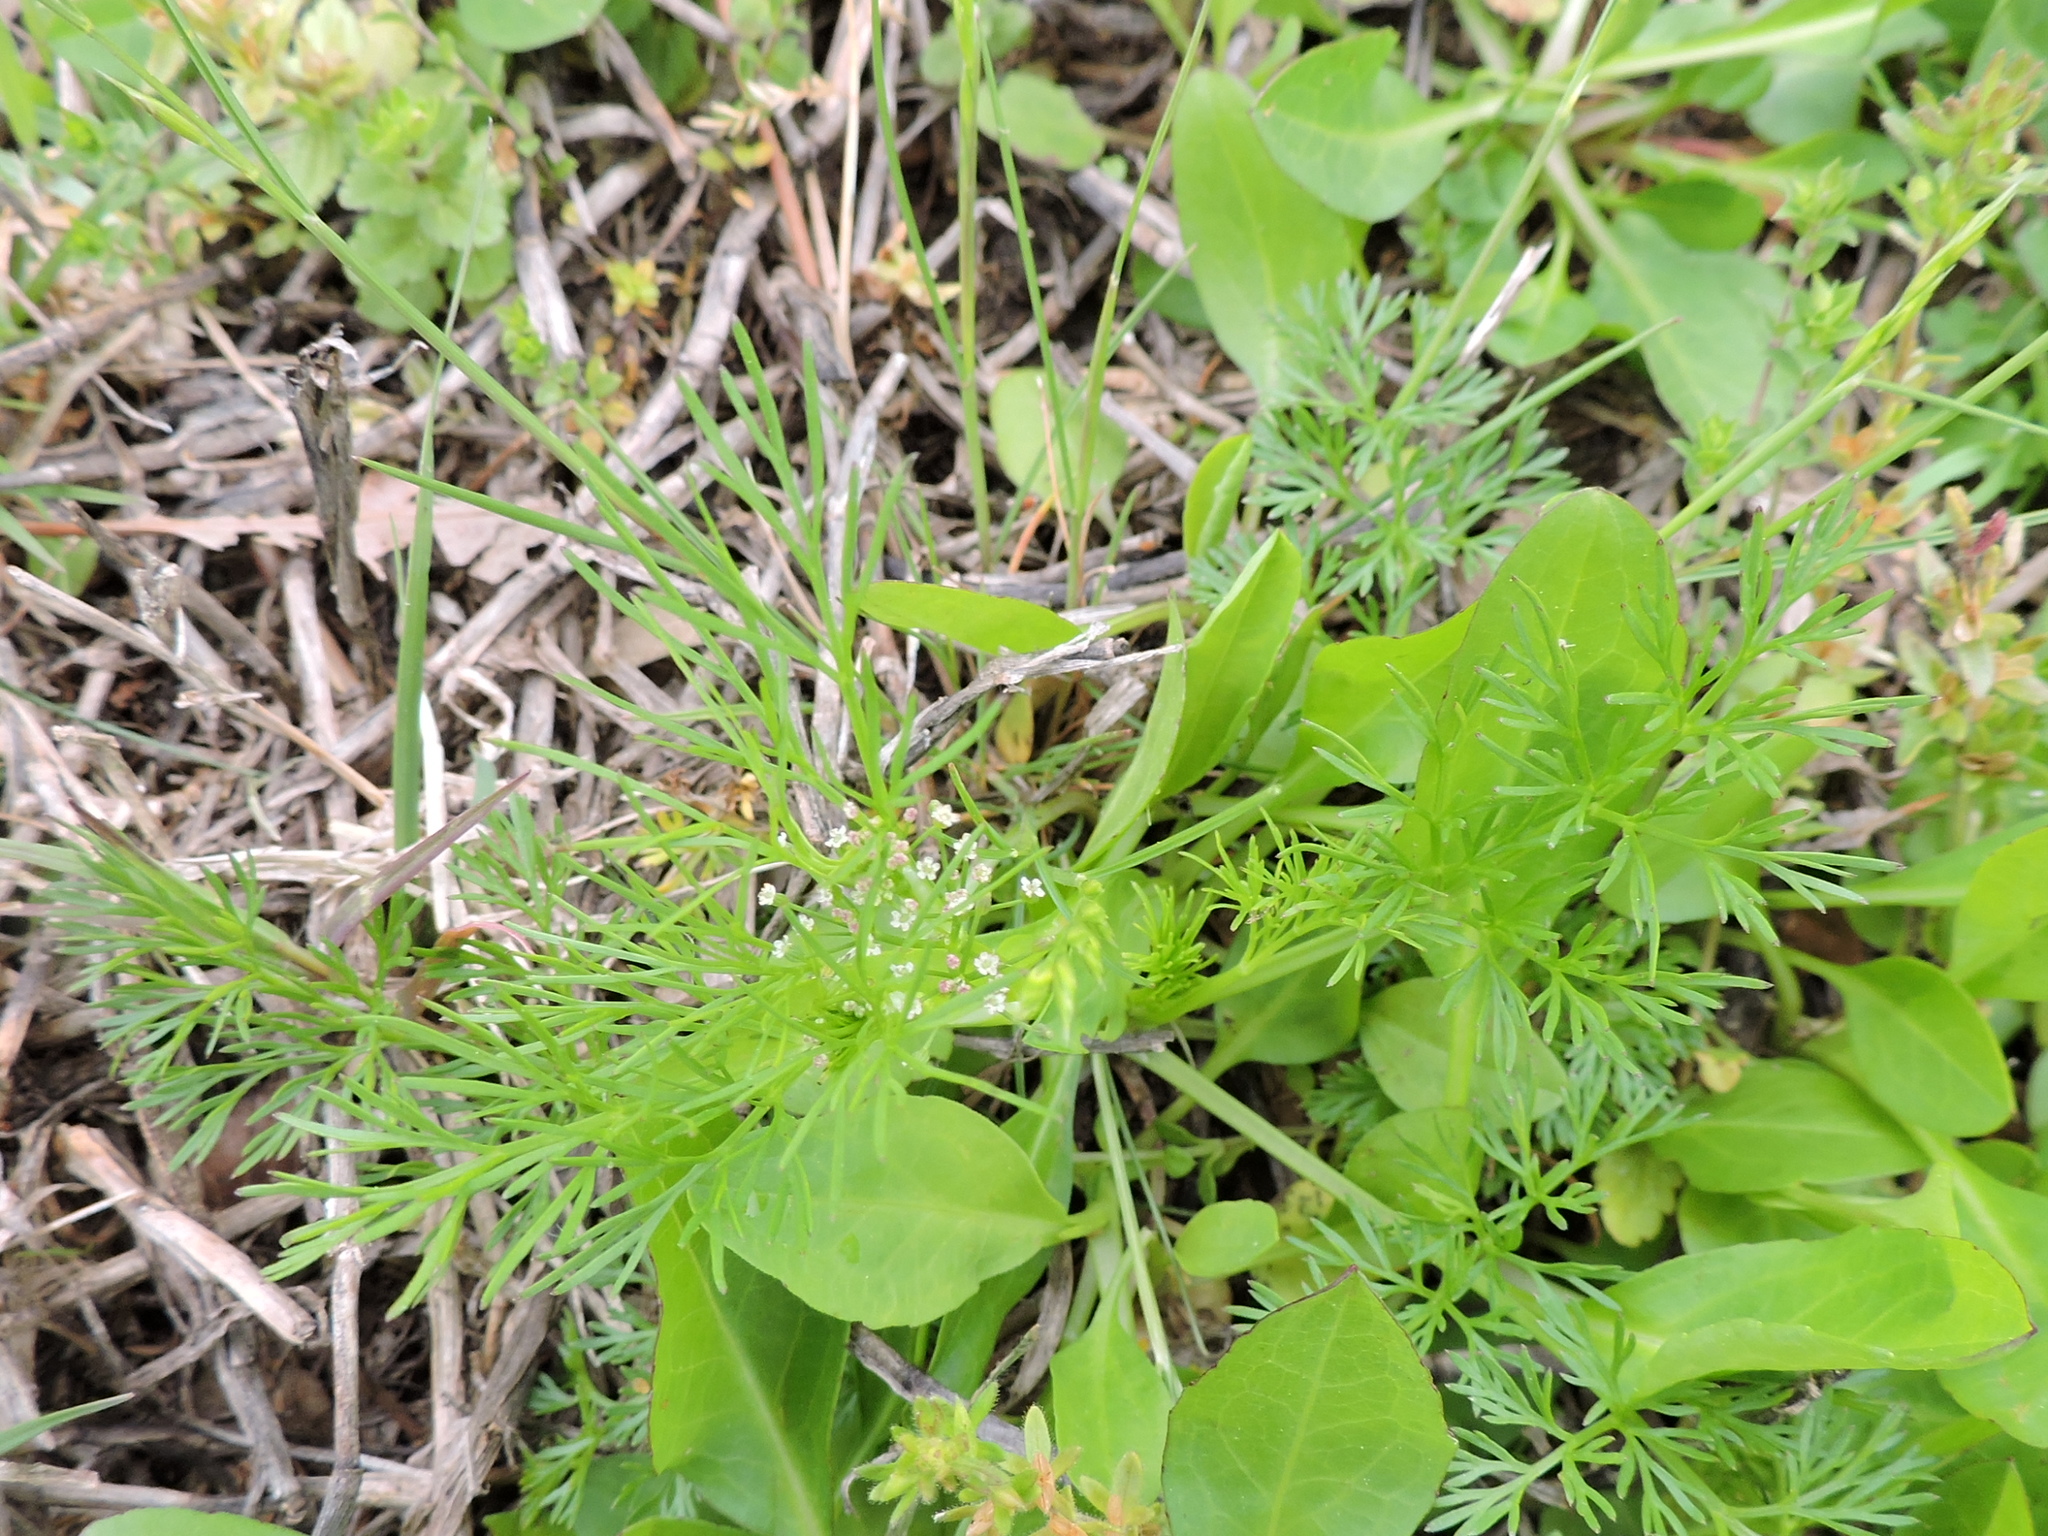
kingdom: Plantae
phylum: Tracheophyta
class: Magnoliopsida
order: Apiales
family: Apiaceae
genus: Cyclospermum
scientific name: Cyclospermum leptophyllum
